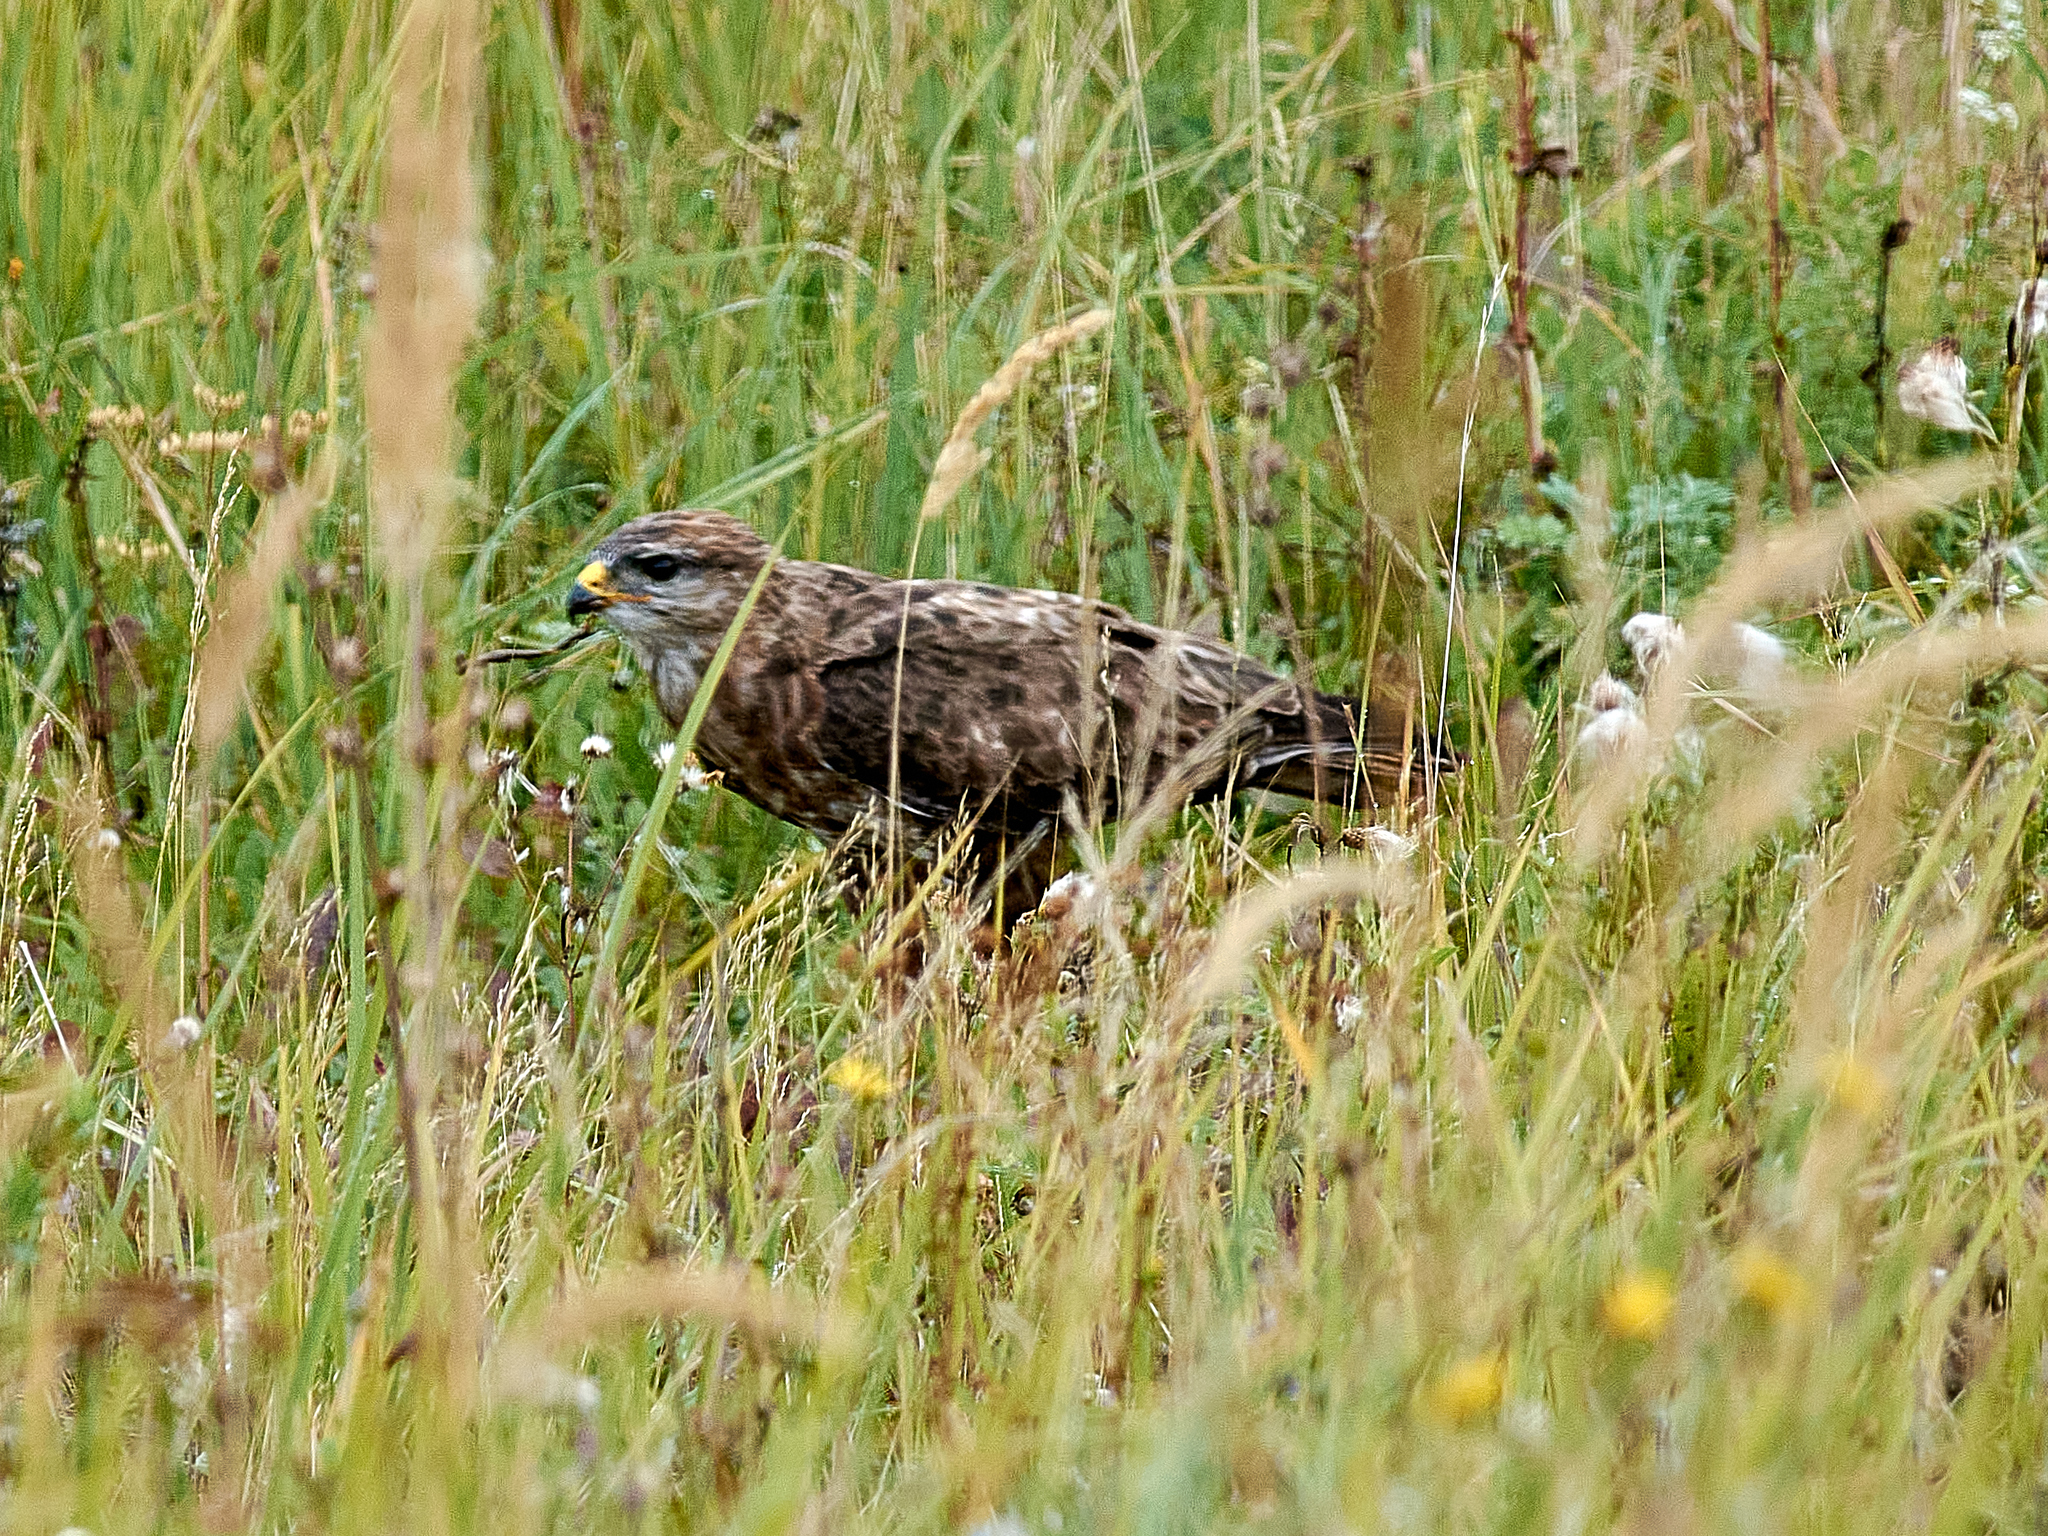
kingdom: Animalia
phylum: Chordata
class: Aves
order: Accipitriformes
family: Accipitridae
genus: Buteo
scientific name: Buteo buteo
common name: Common buzzard
